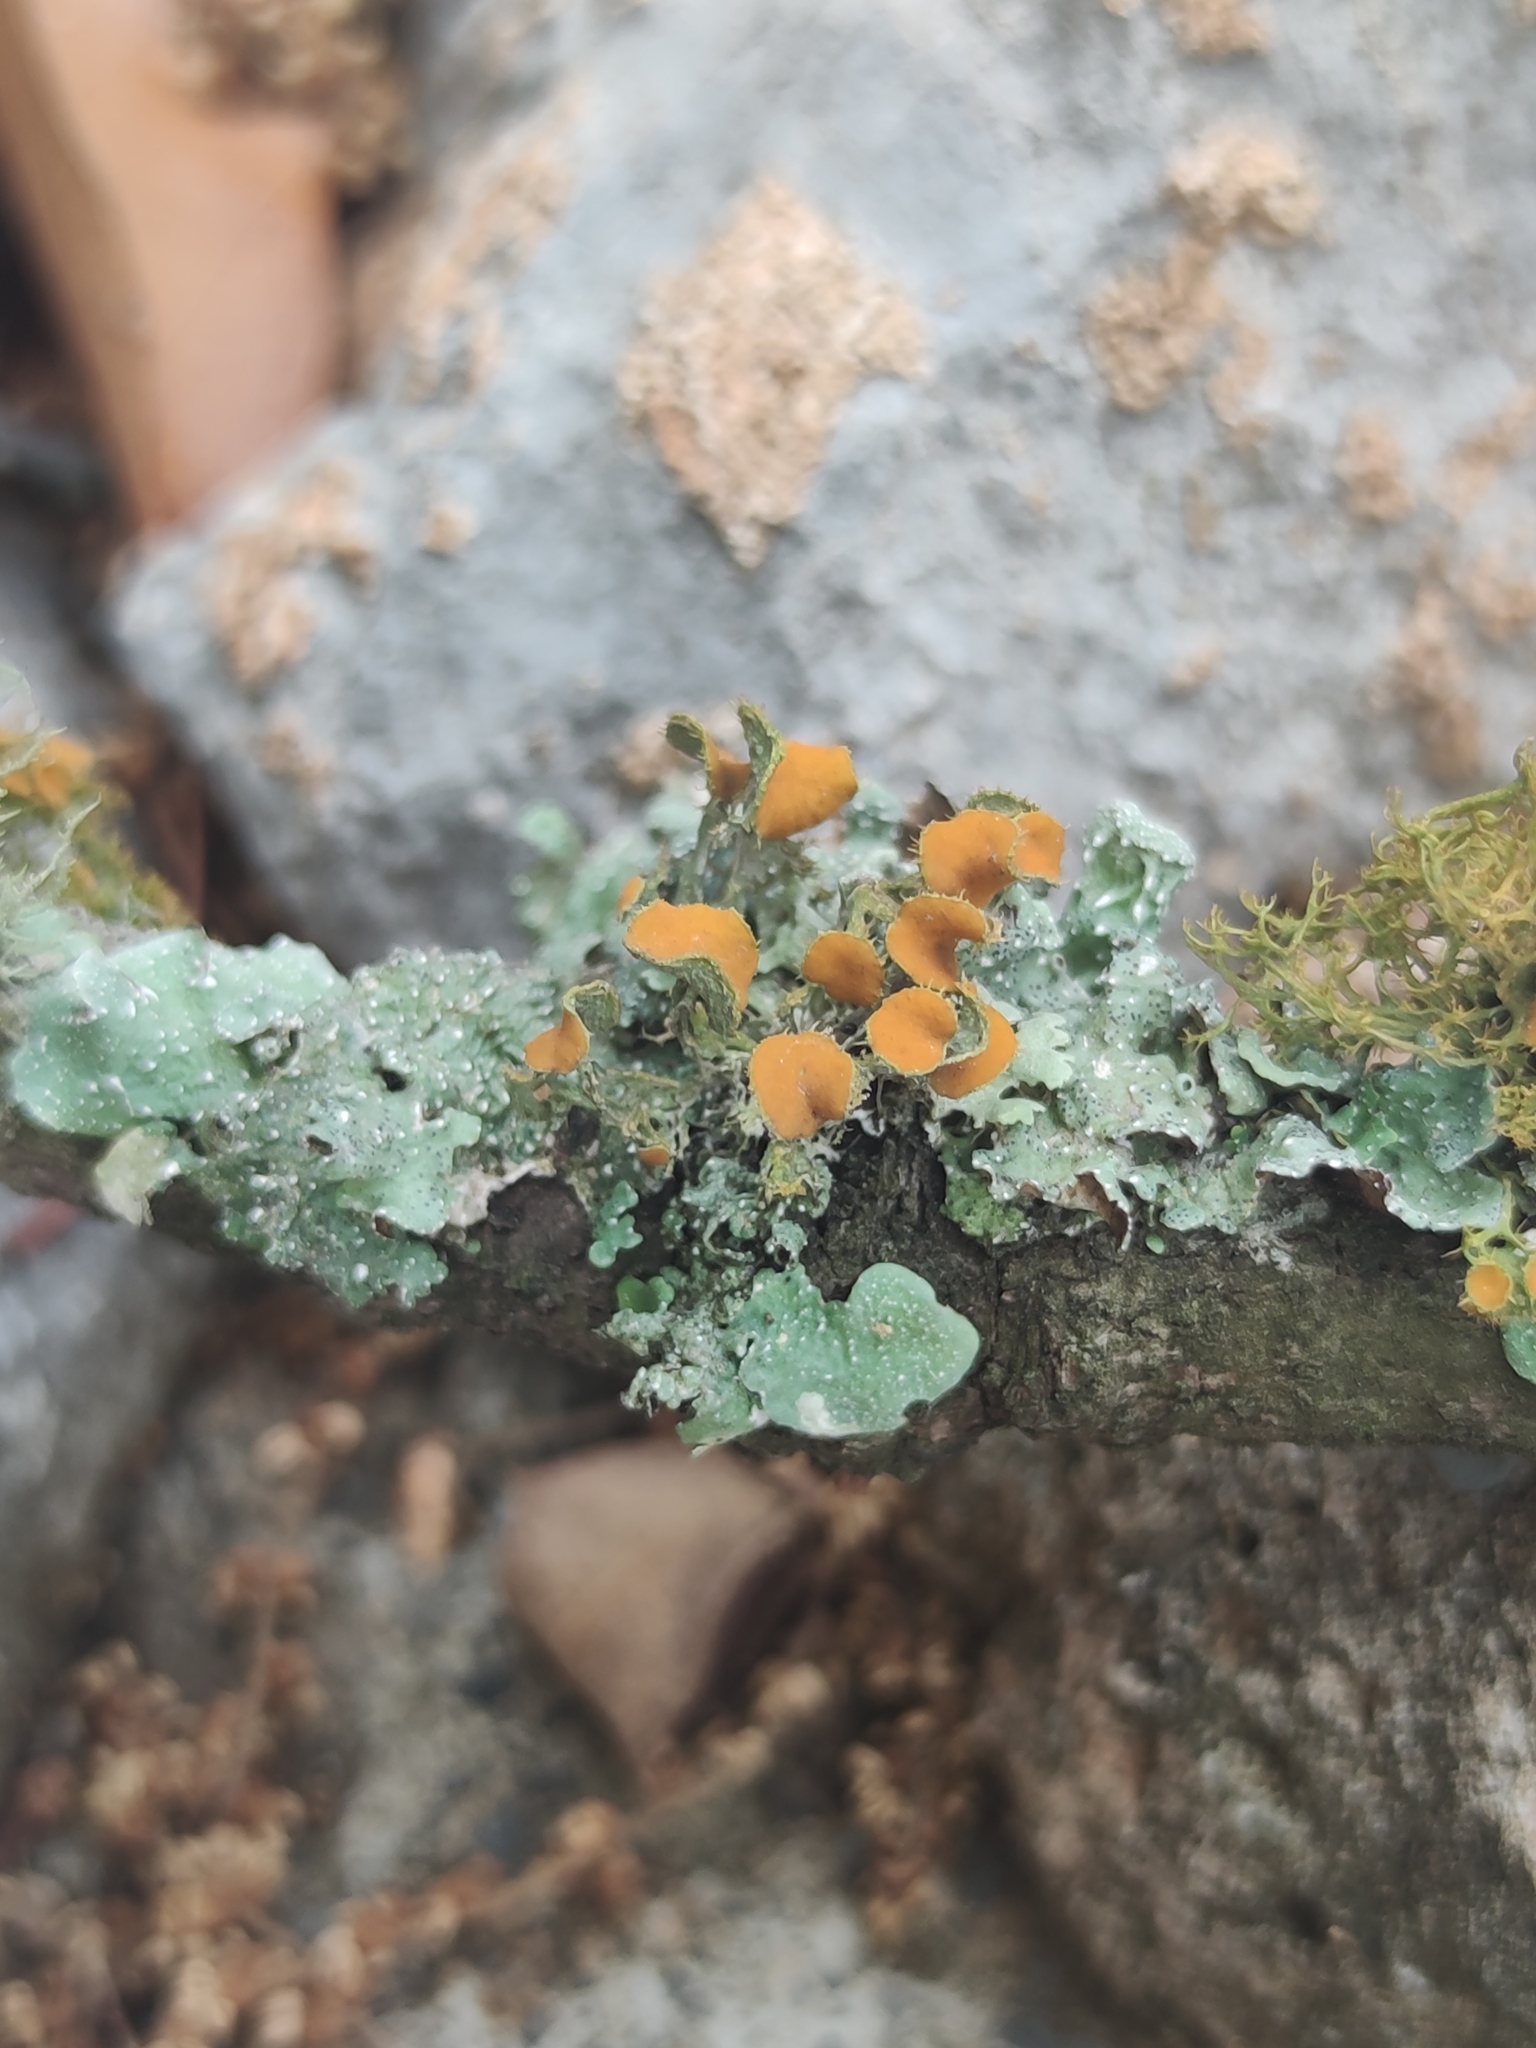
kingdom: Fungi
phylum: Ascomycota
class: Lecanoromycetes
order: Teloschistales
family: Teloschistaceae
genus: Niorma
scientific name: Niorma chrysophthalma
